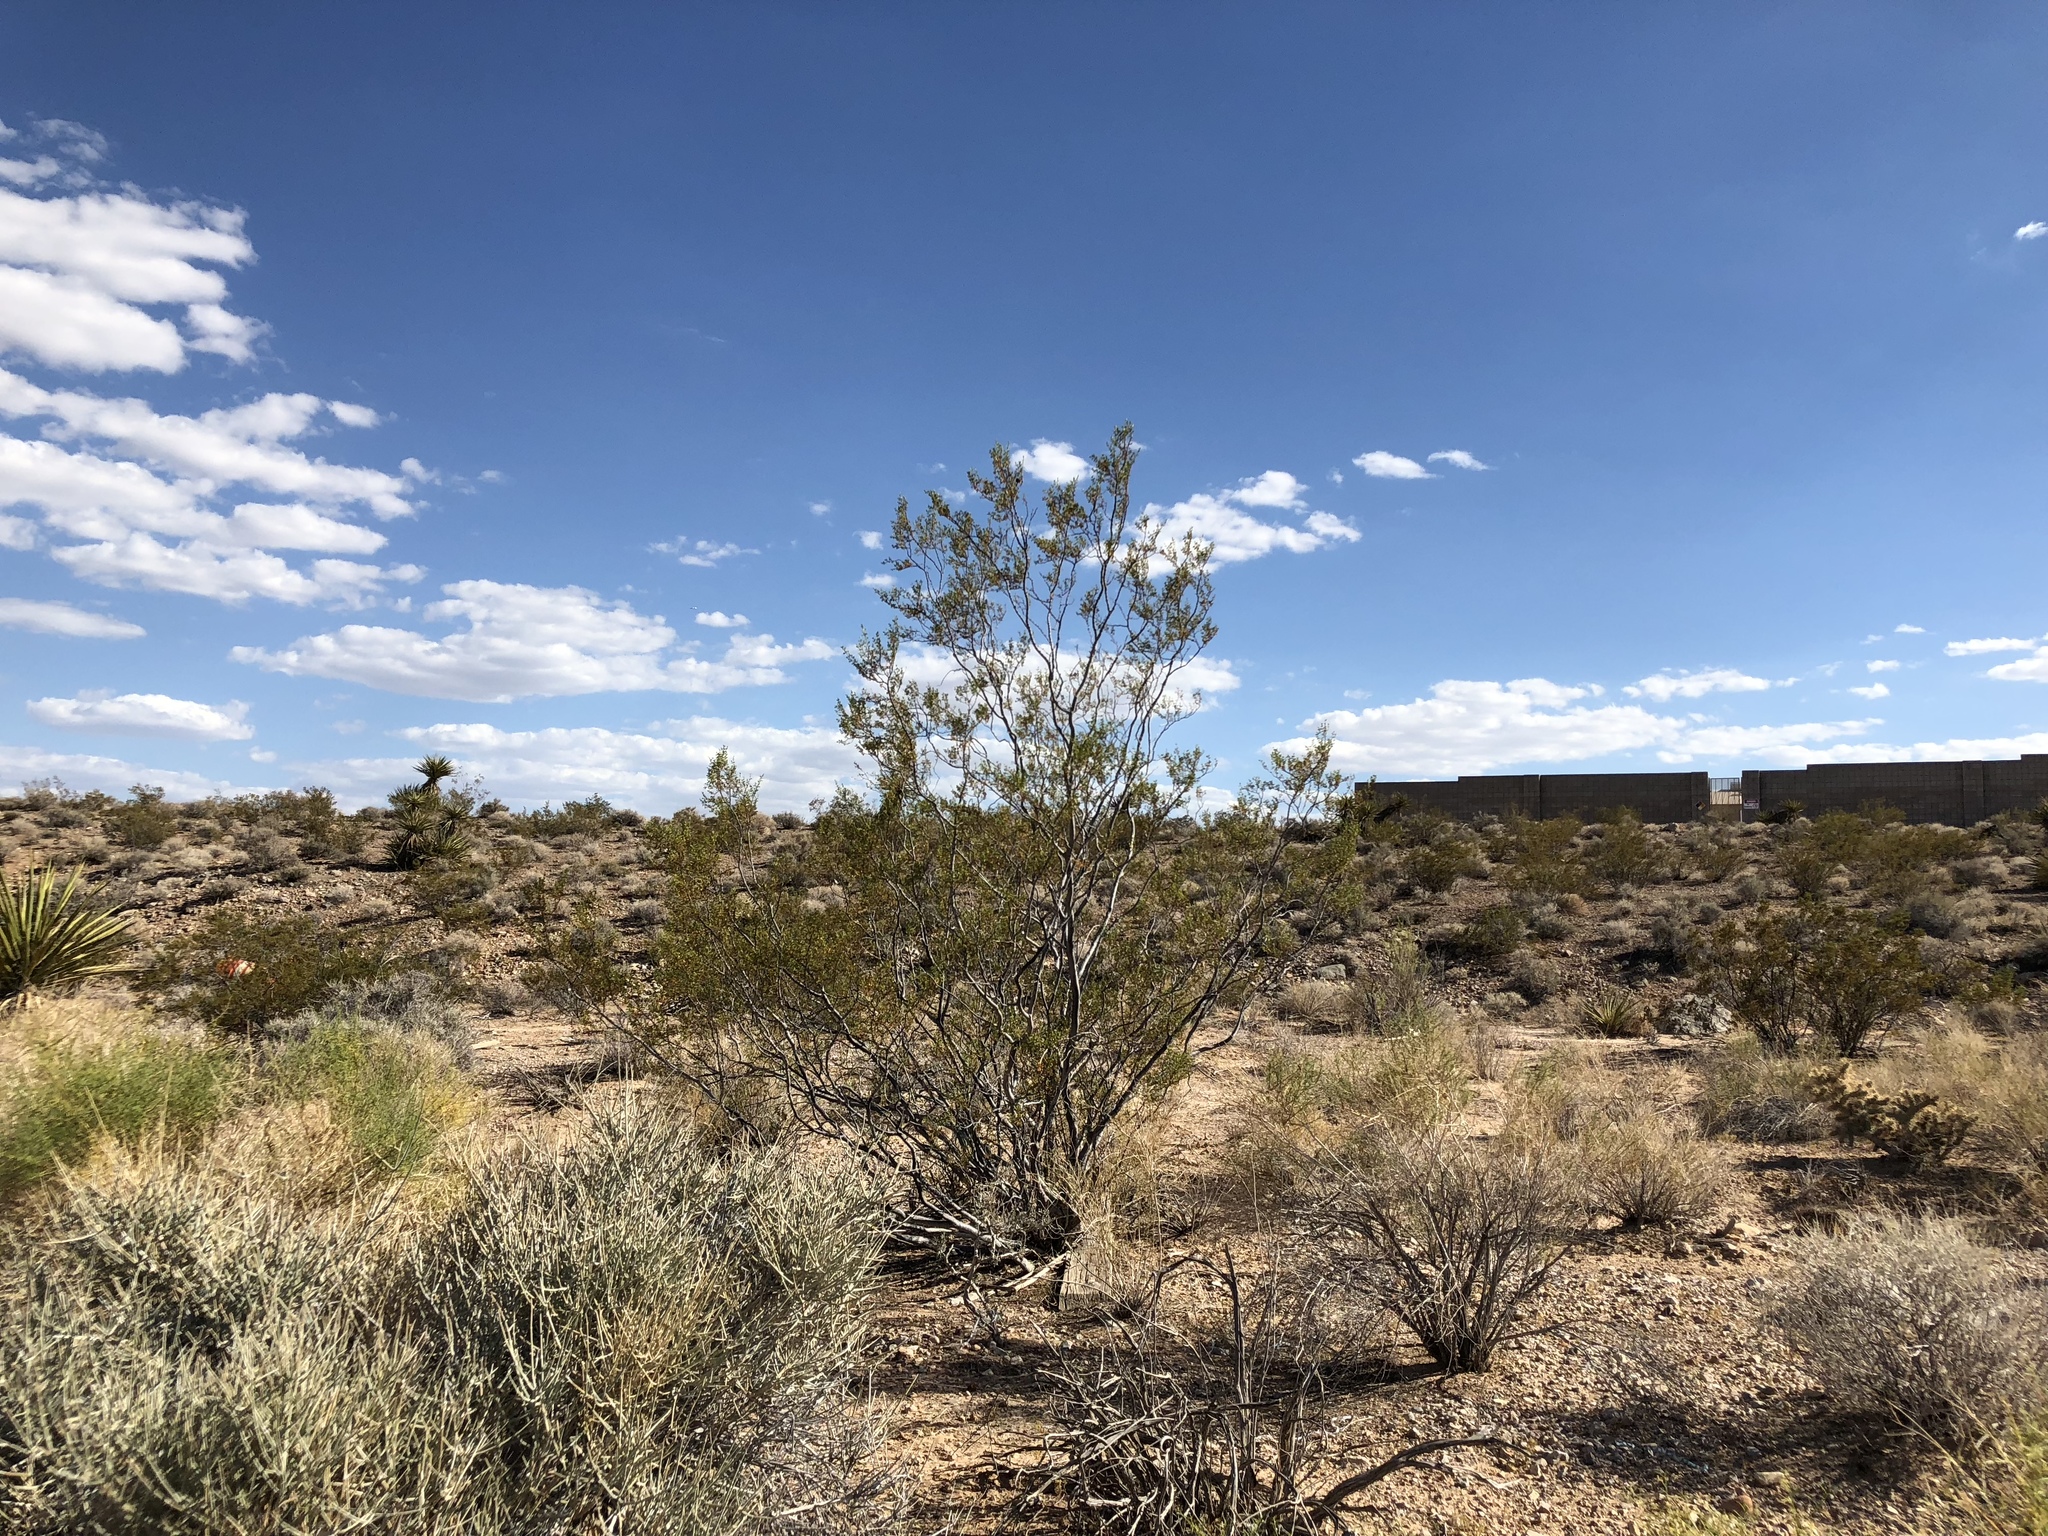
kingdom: Plantae
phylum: Tracheophyta
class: Magnoliopsida
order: Zygophyllales
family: Zygophyllaceae
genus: Larrea
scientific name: Larrea tridentata
